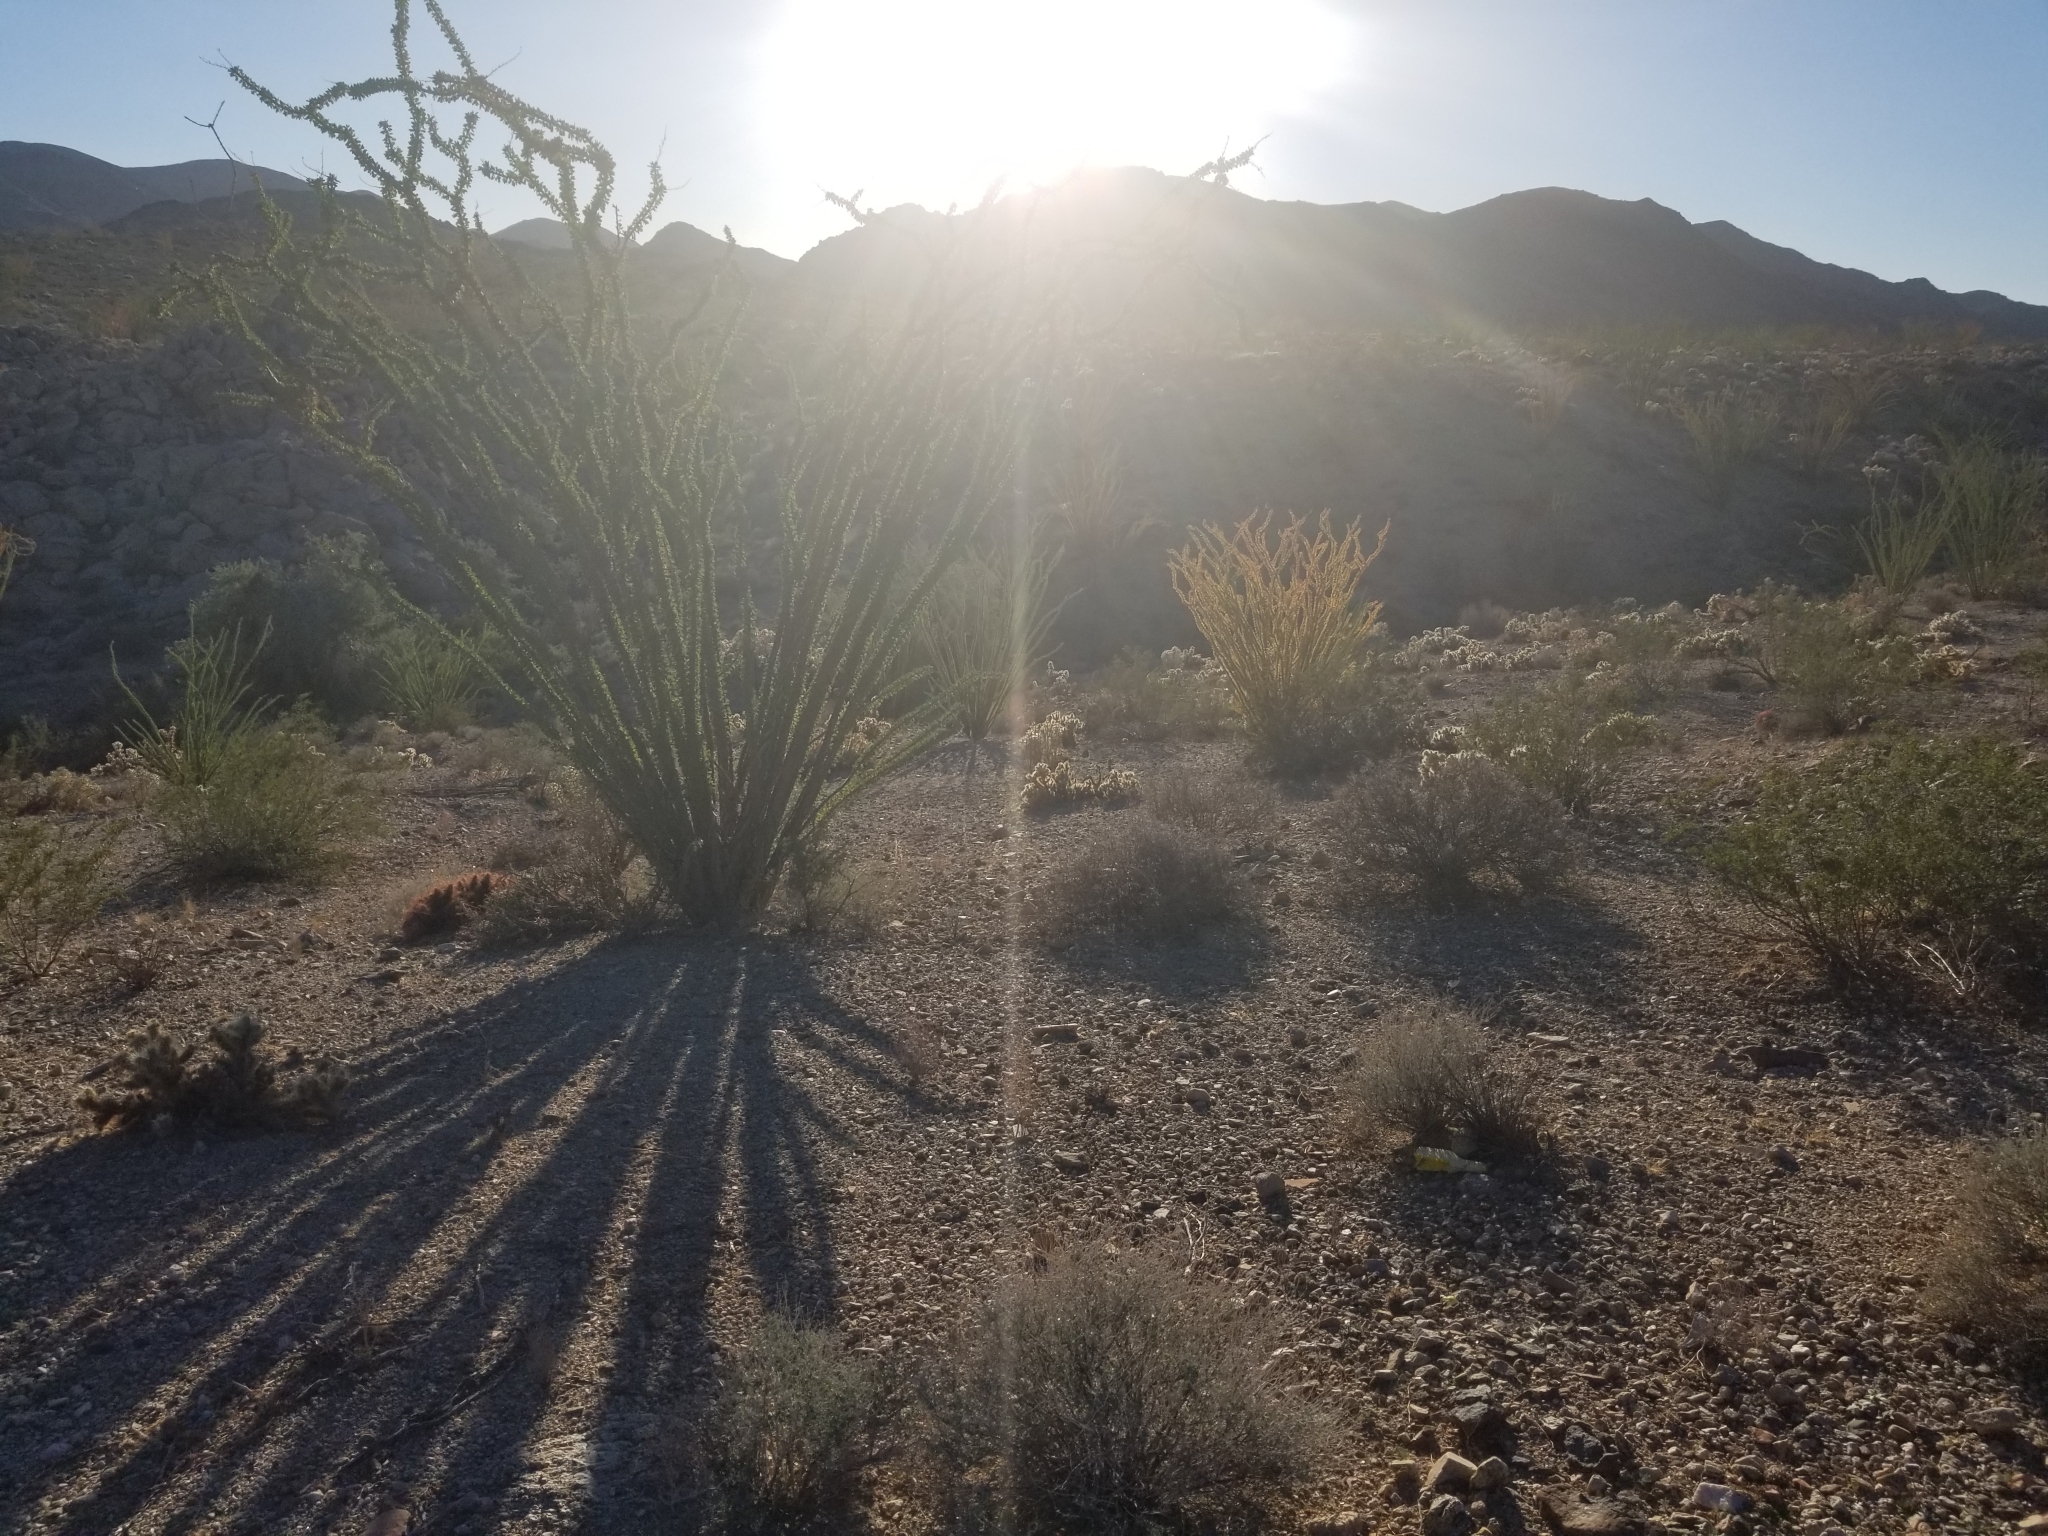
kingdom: Plantae
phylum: Tracheophyta
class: Magnoliopsida
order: Ericales
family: Fouquieriaceae
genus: Fouquieria
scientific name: Fouquieria splendens
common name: Vine-cactus
